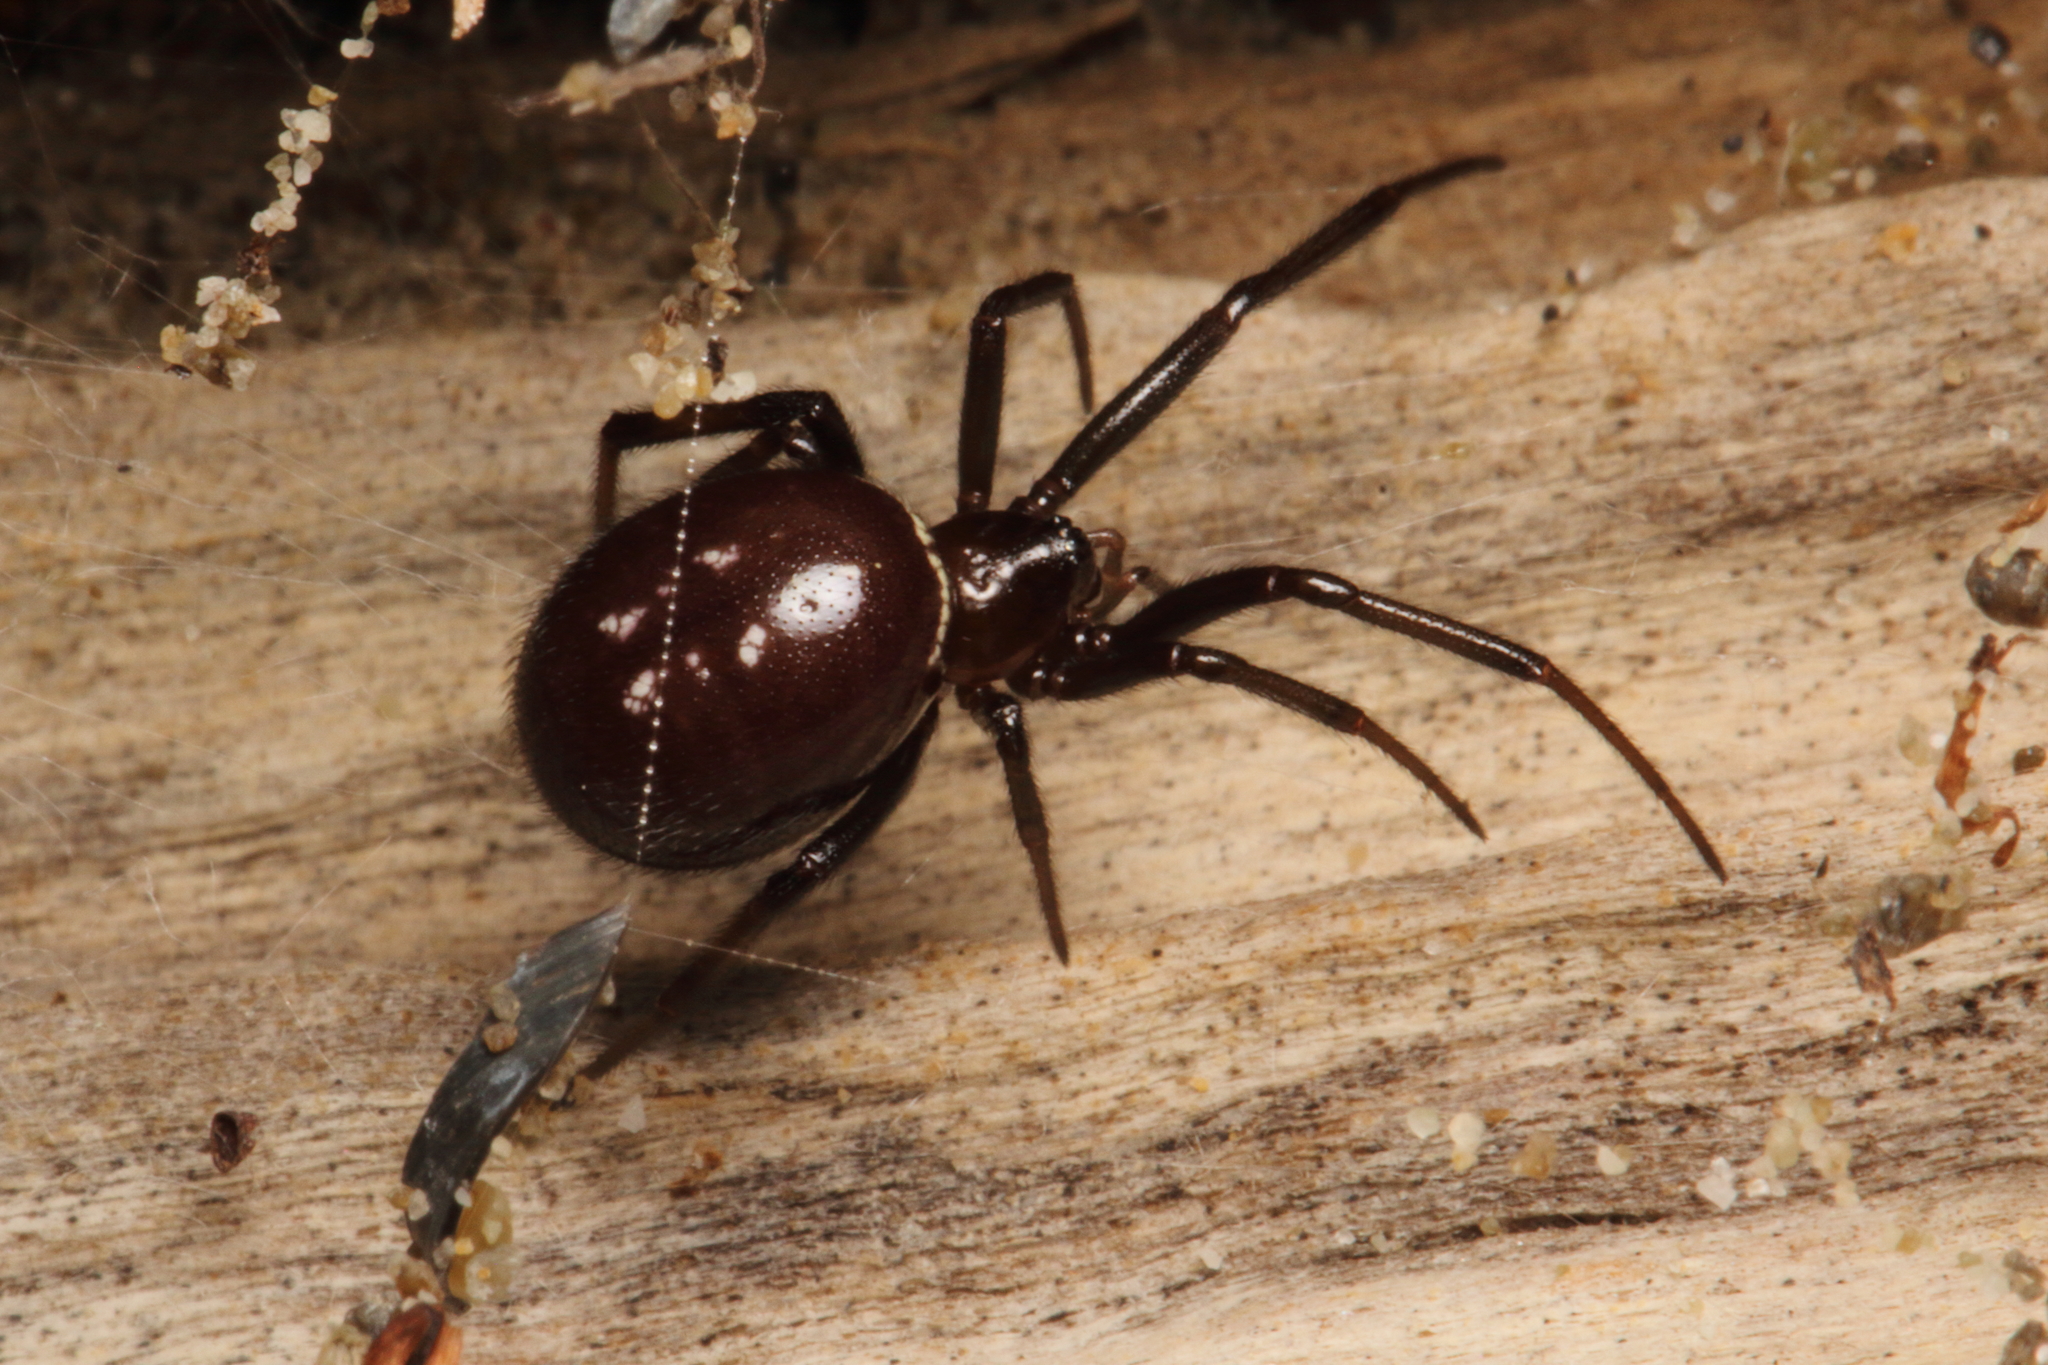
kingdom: Animalia
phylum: Arthropoda
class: Arachnida
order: Araneae
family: Theridiidae
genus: Steatoda
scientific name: Steatoda capensis
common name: Cobweb weaver
